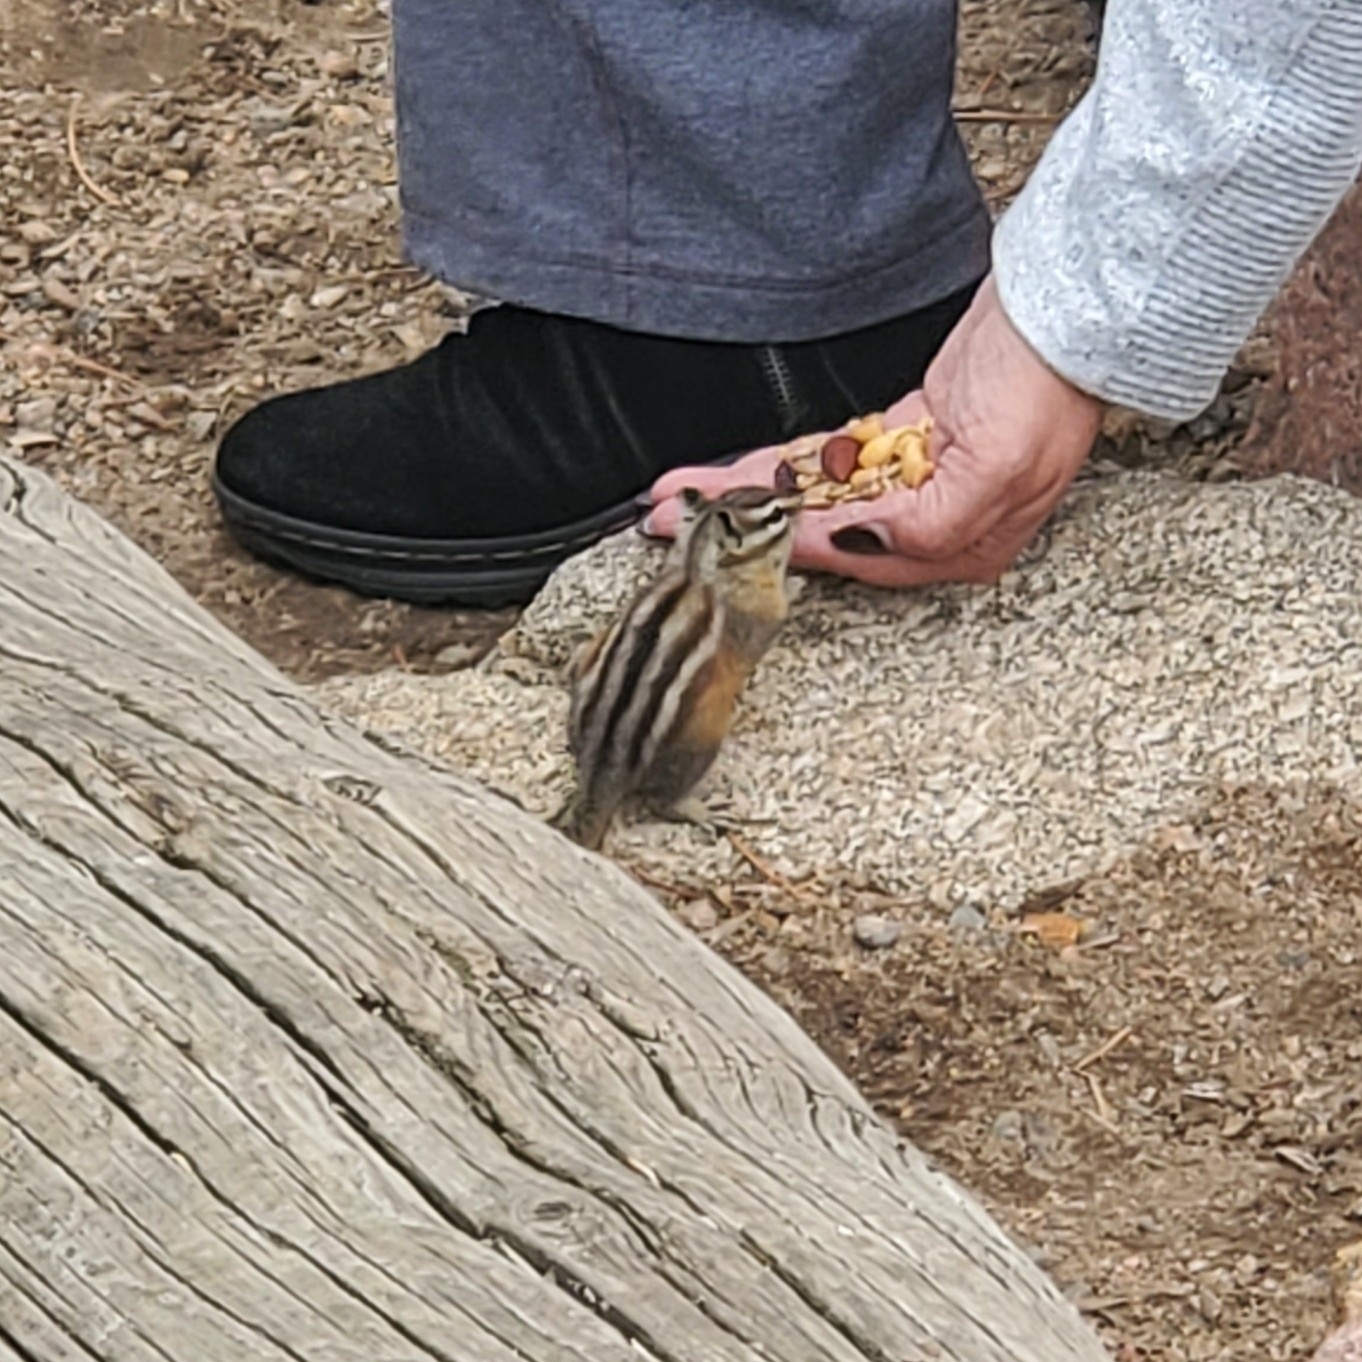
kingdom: Animalia
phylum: Chordata
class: Mammalia
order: Rodentia
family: Sciuridae
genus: Tamias
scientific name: Tamias minimus
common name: Least chipmunk
